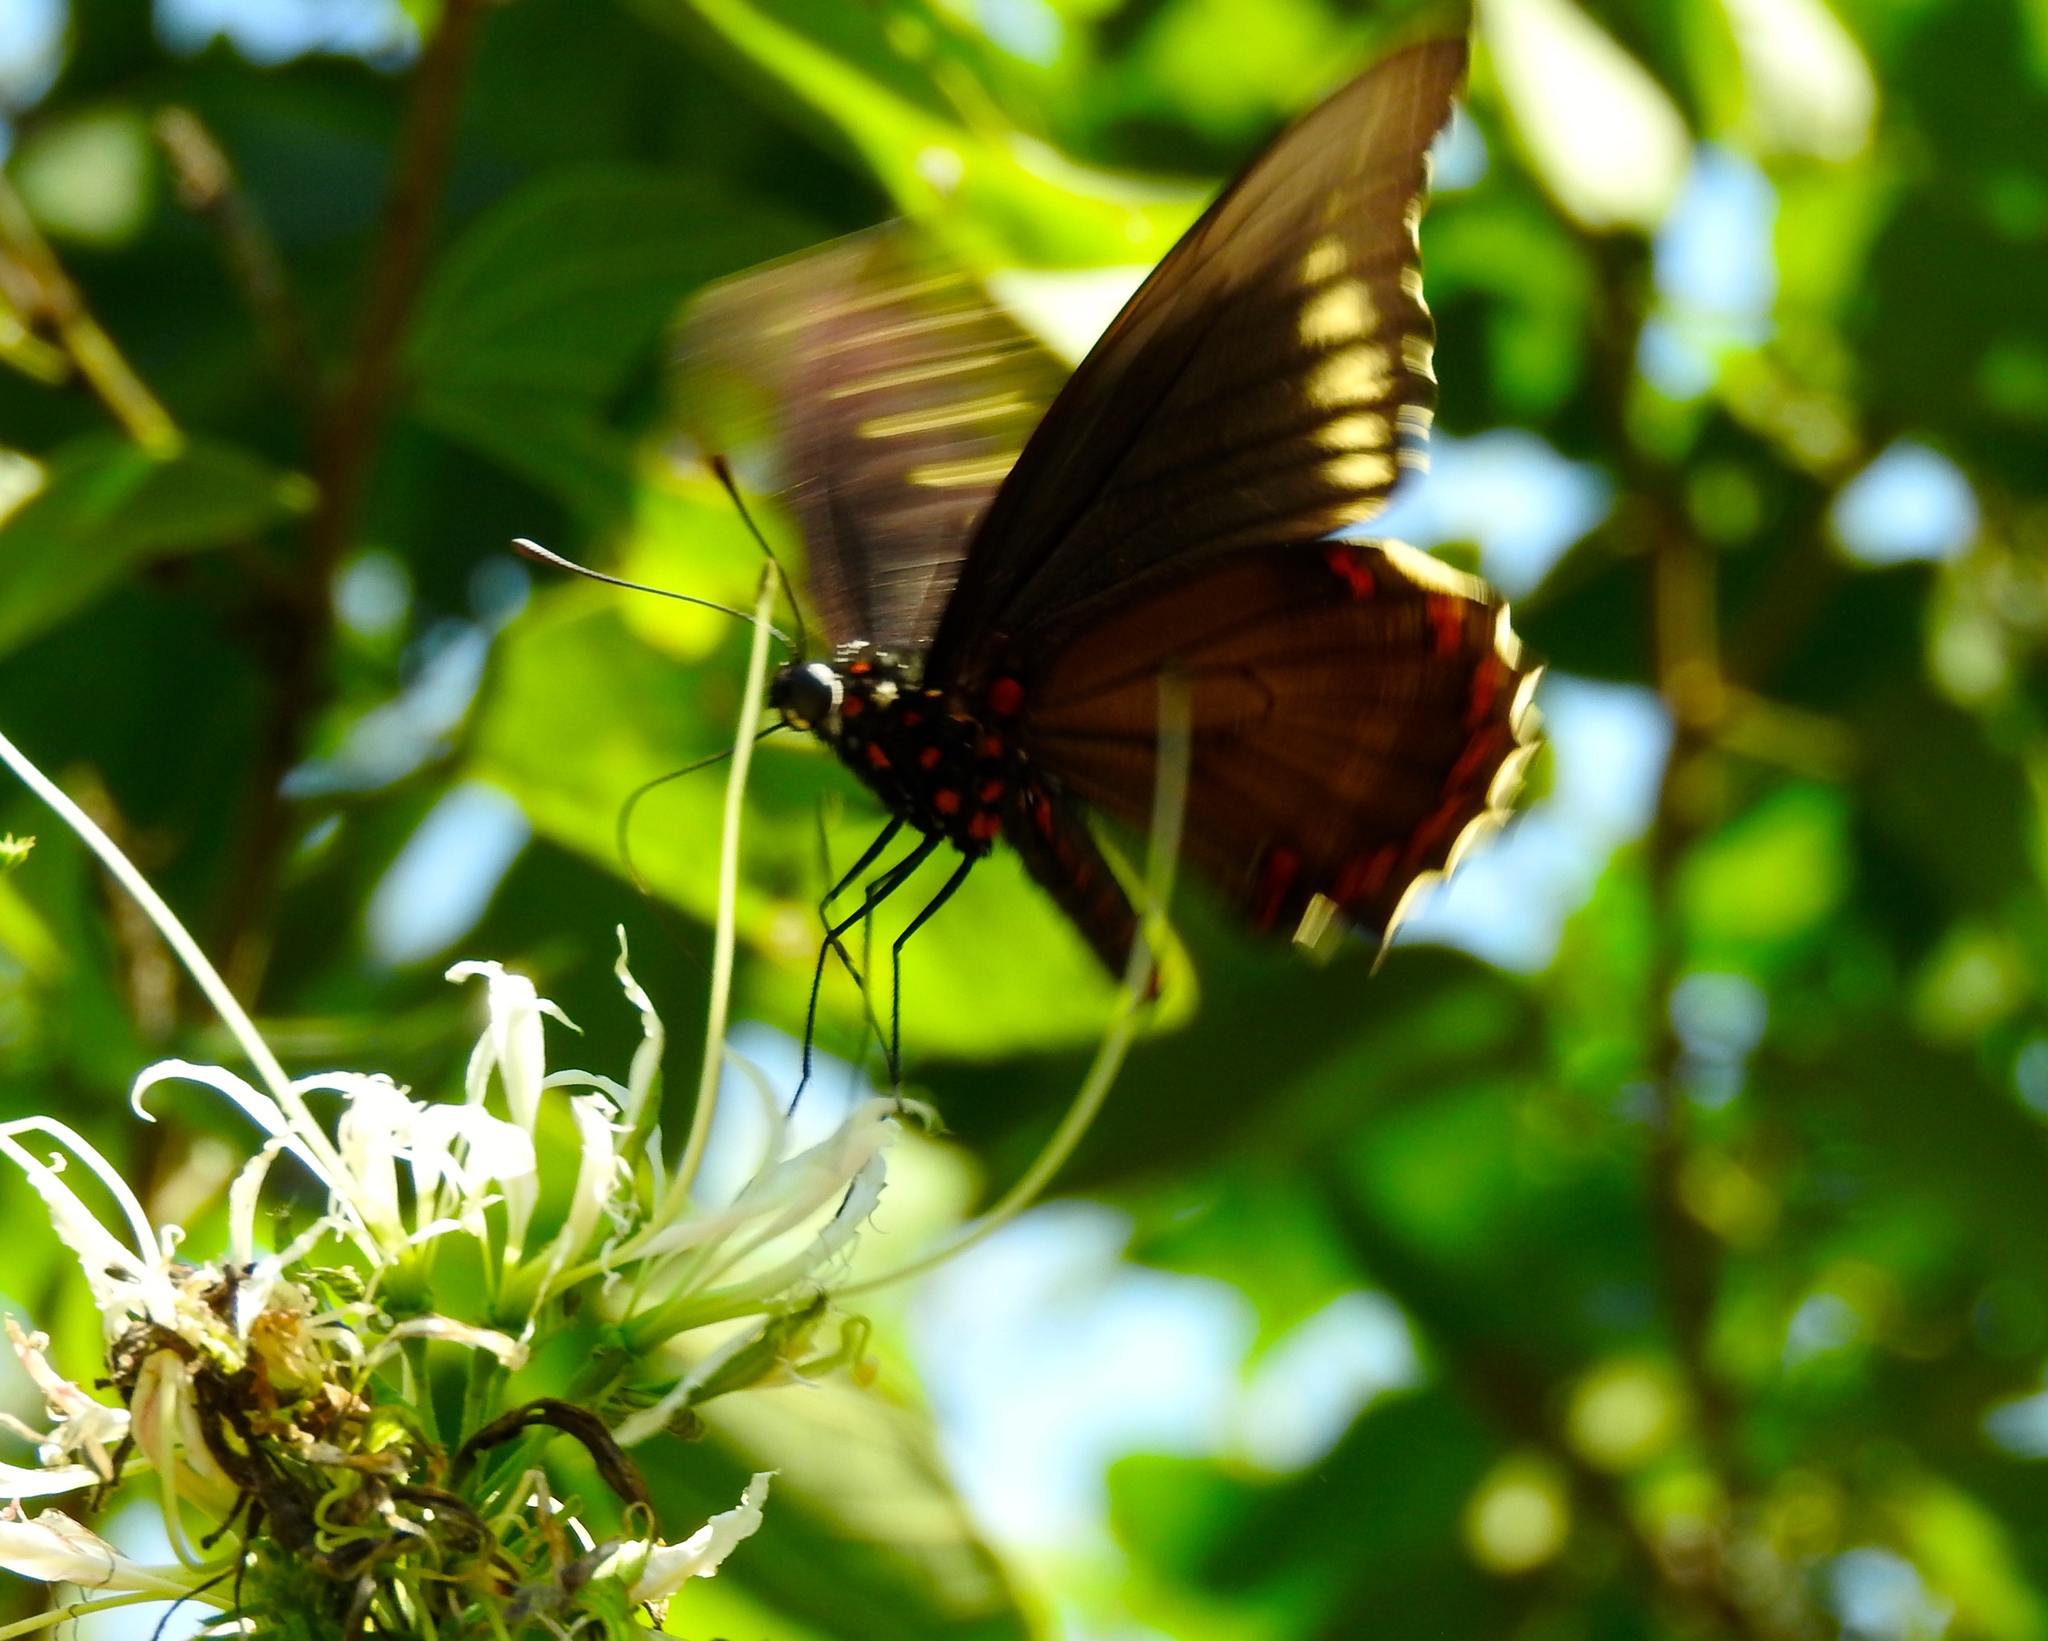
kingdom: Plantae
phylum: Tracheophyta
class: Magnoliopsida
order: Fabales
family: Fabaceae
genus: Bauhinia
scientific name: Bauhinia divaricata
